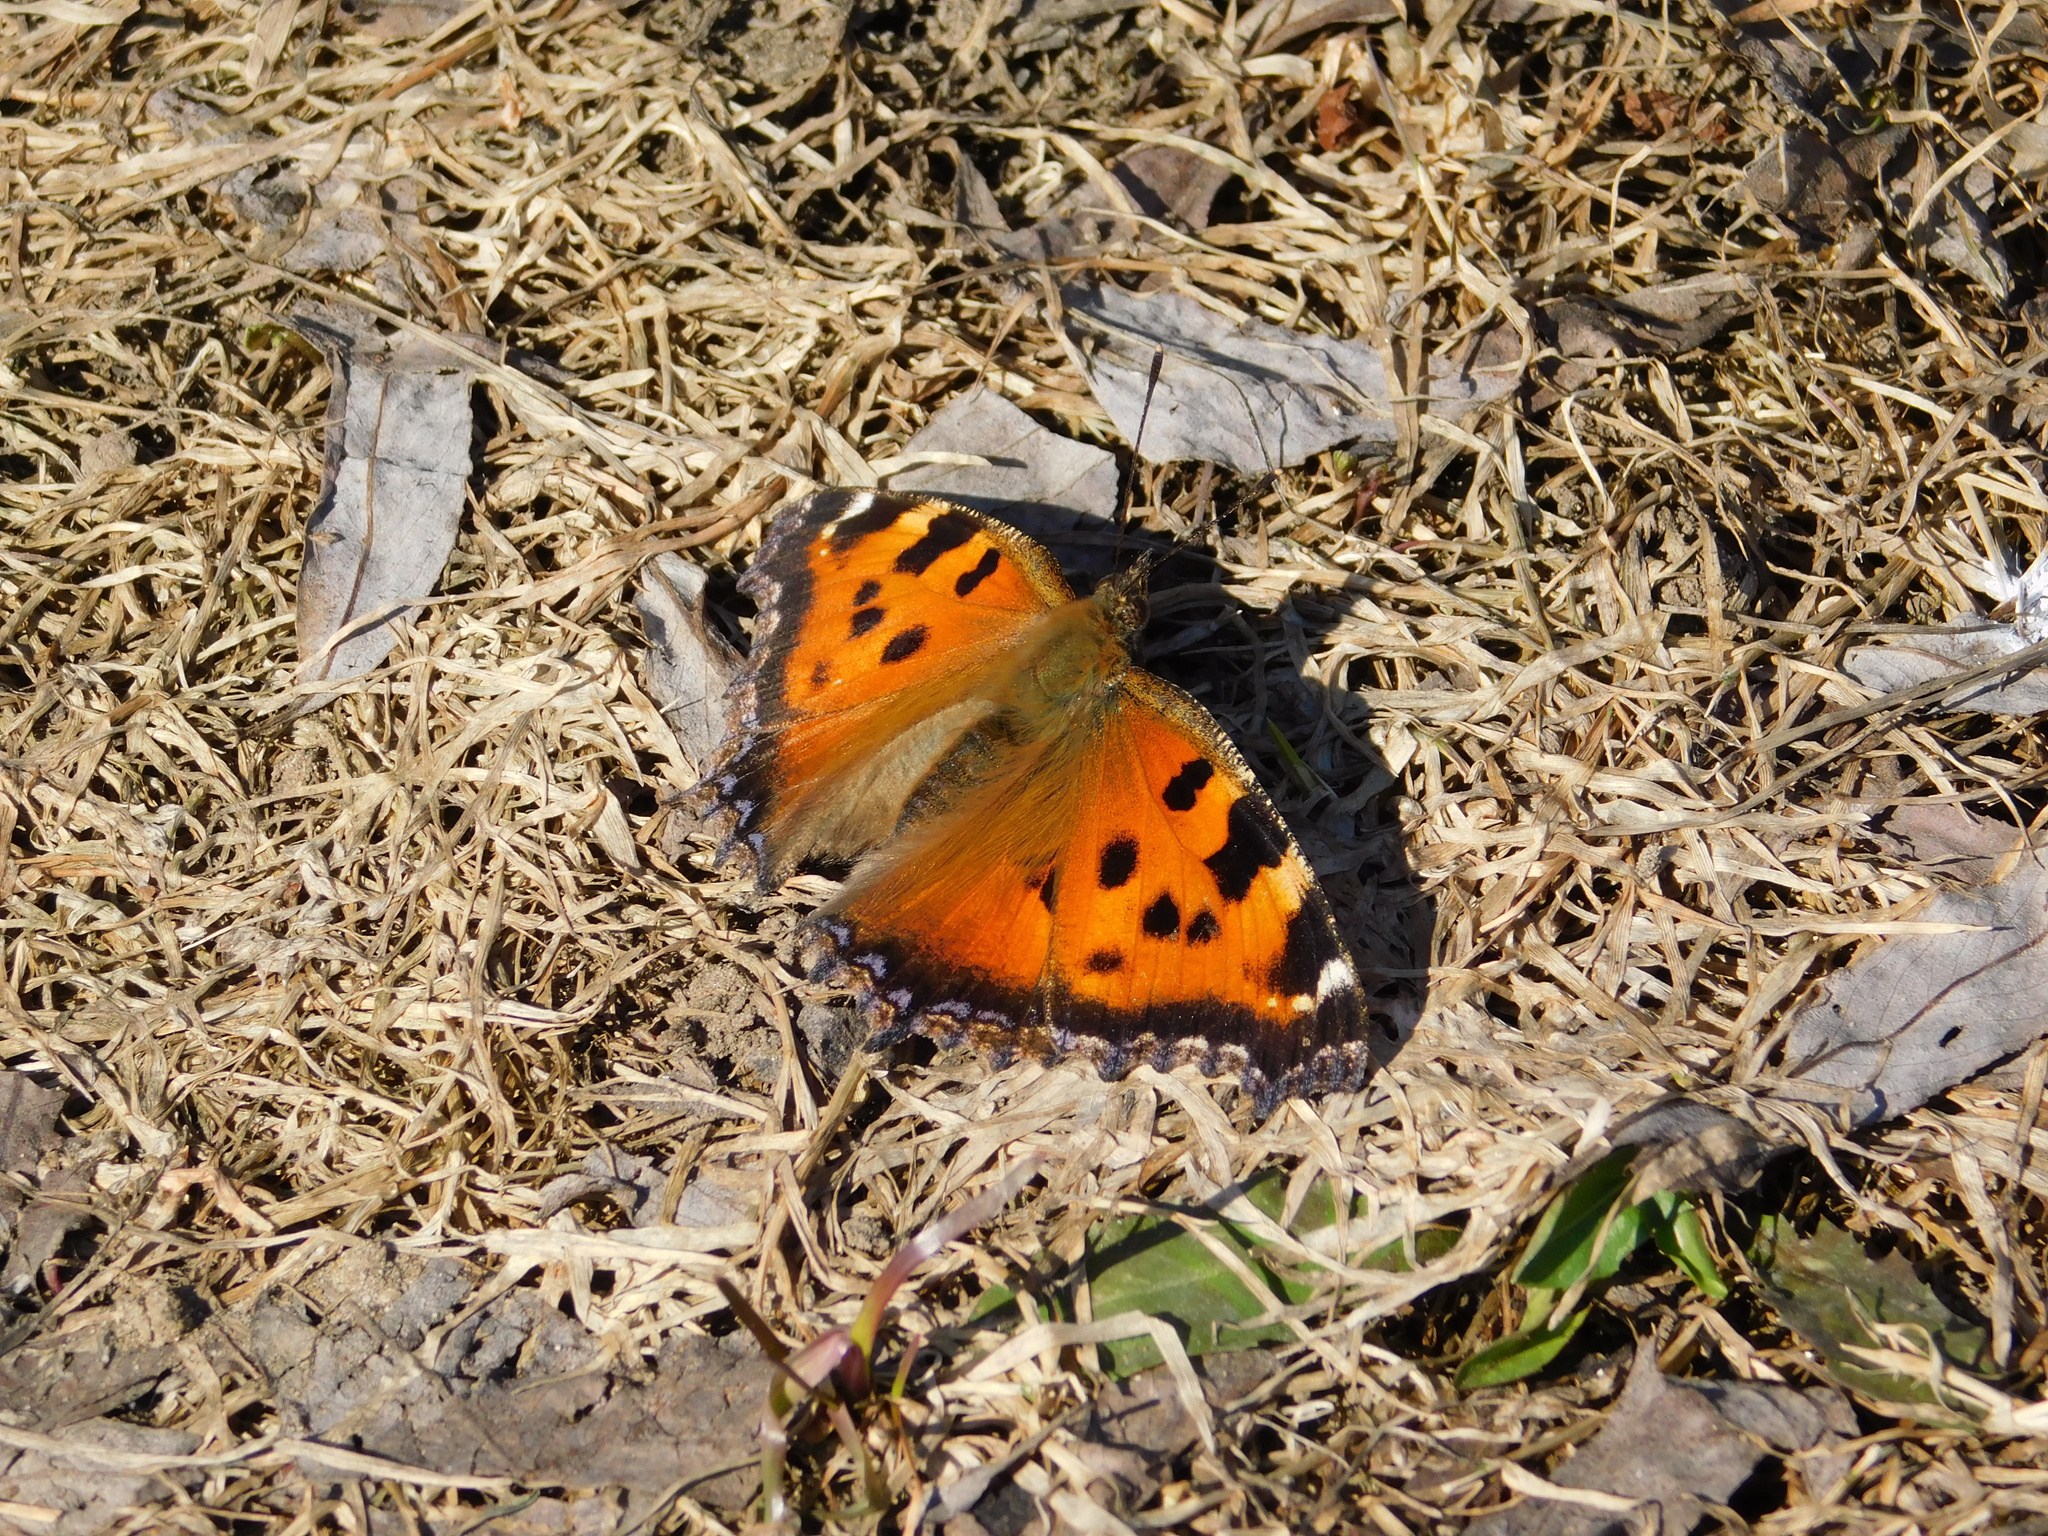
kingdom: Animalia
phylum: Arthropoda
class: Insecta
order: Lepidoptera
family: Nymphalidae
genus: Nymphalis
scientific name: Nymphalis xanthomelas
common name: Scarce tortoiseshell
